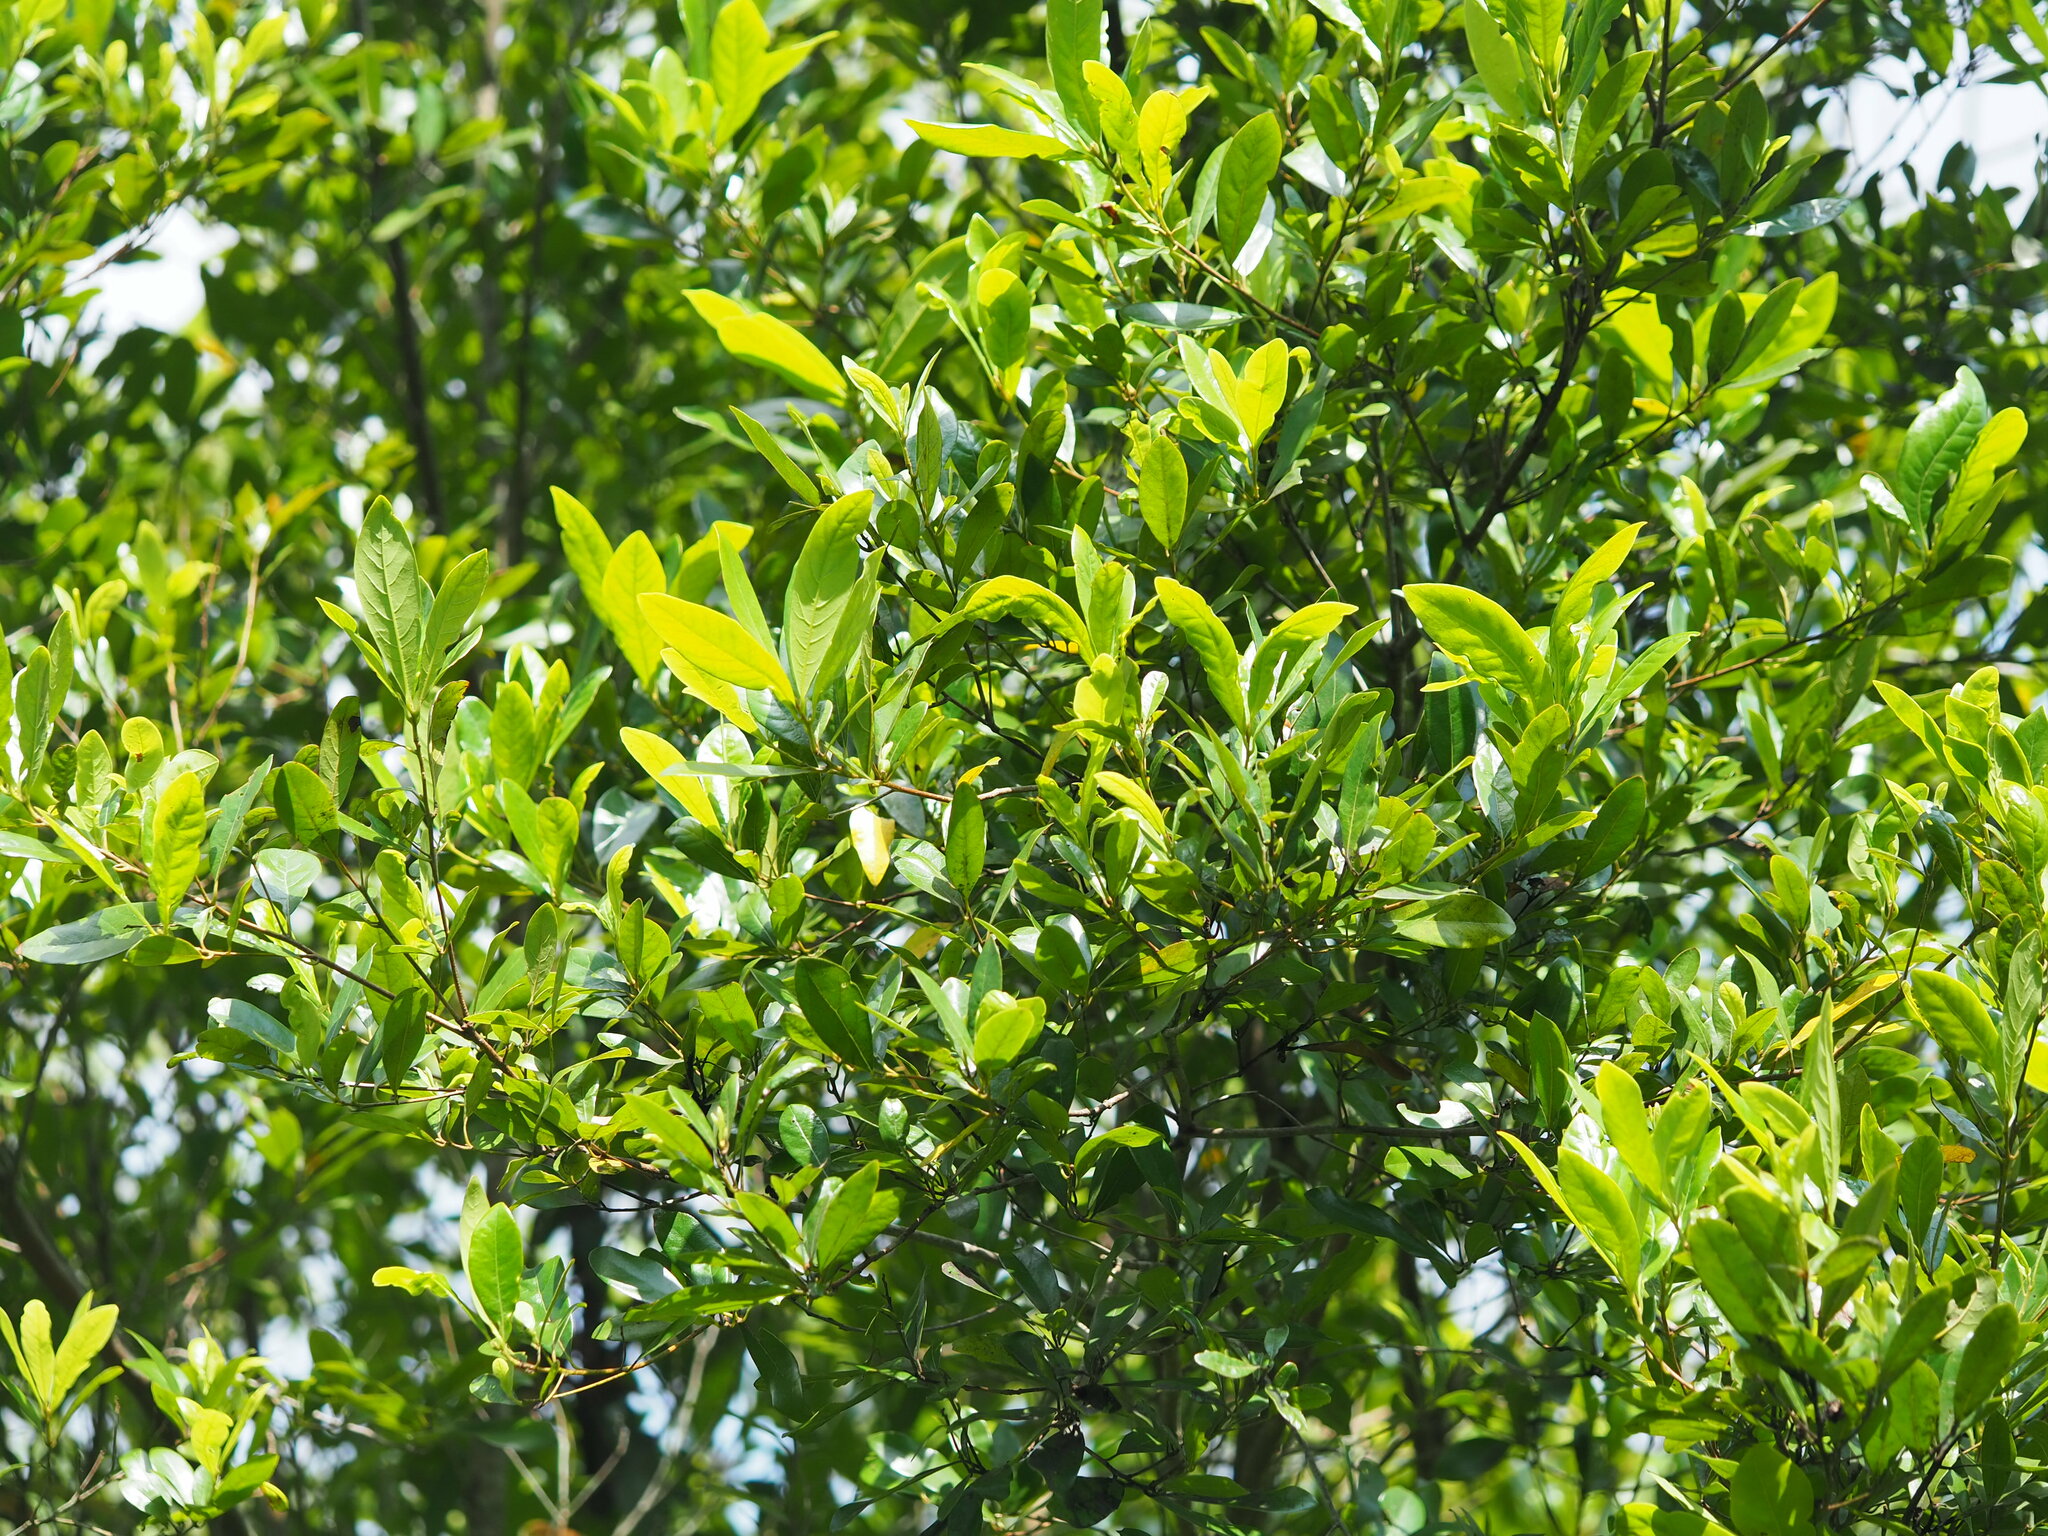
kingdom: Plantae
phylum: Tracheophyta
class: Magnoliopsida
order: Laurales
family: Lauraceae
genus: Litsea
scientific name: Litsea hypophaea
